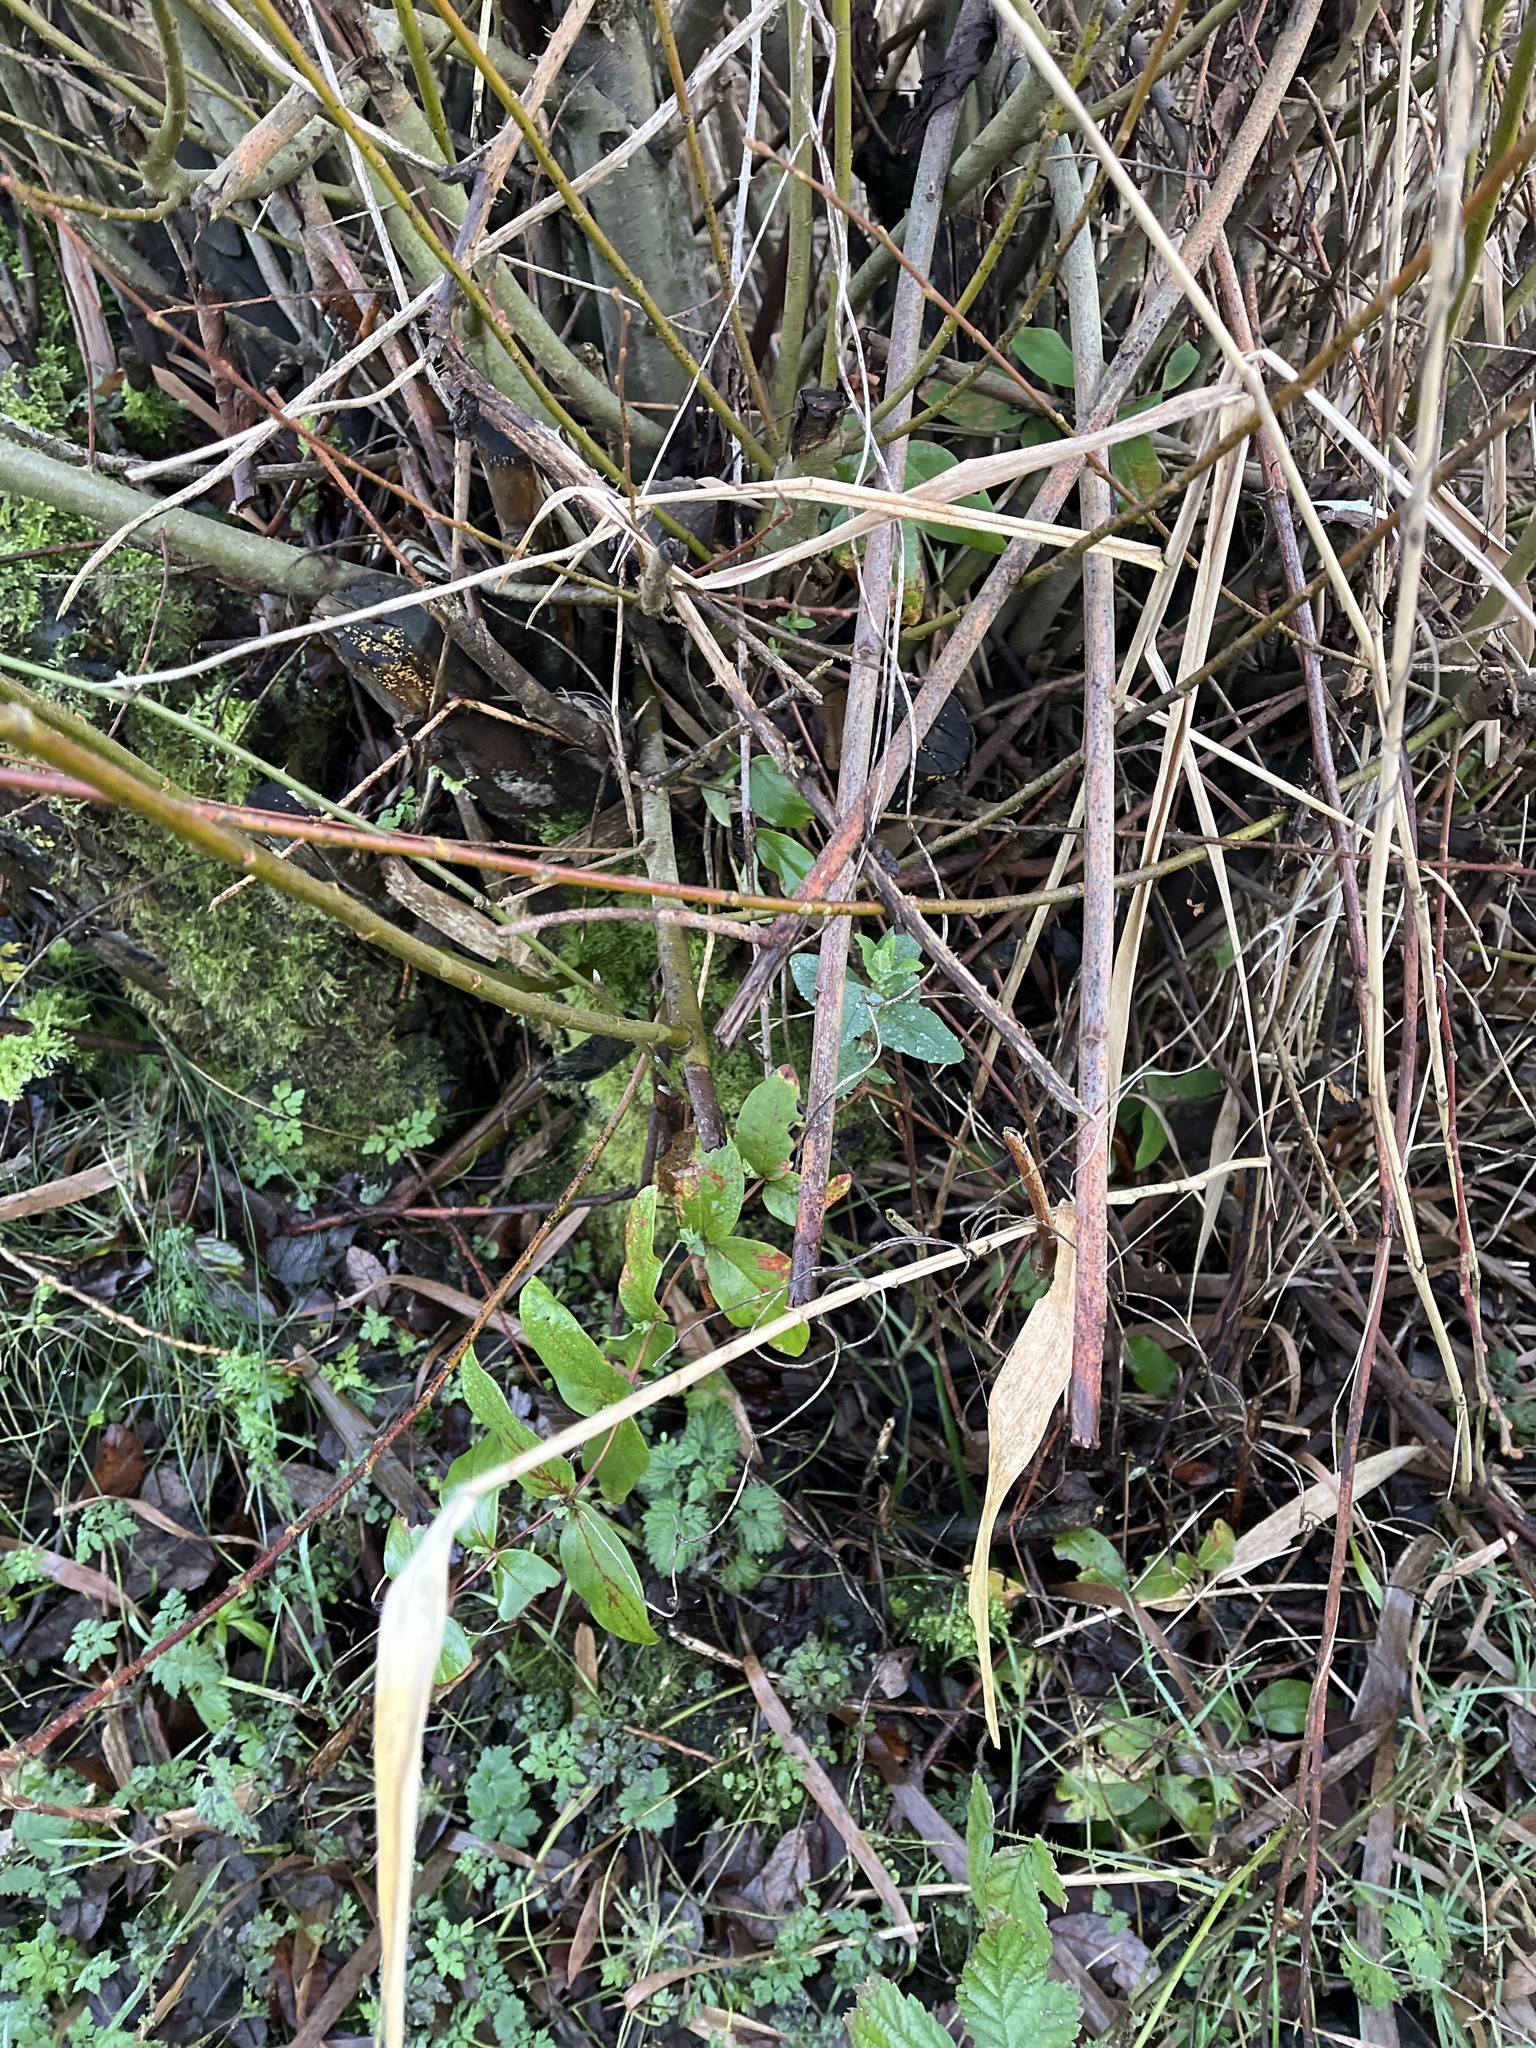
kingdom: Plantae
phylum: Tracheophyta
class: Magnoliopsida
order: Malpighiales
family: Hypericaceae
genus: Hypericum
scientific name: Hypericum androsaemum
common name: Sweet-amber
